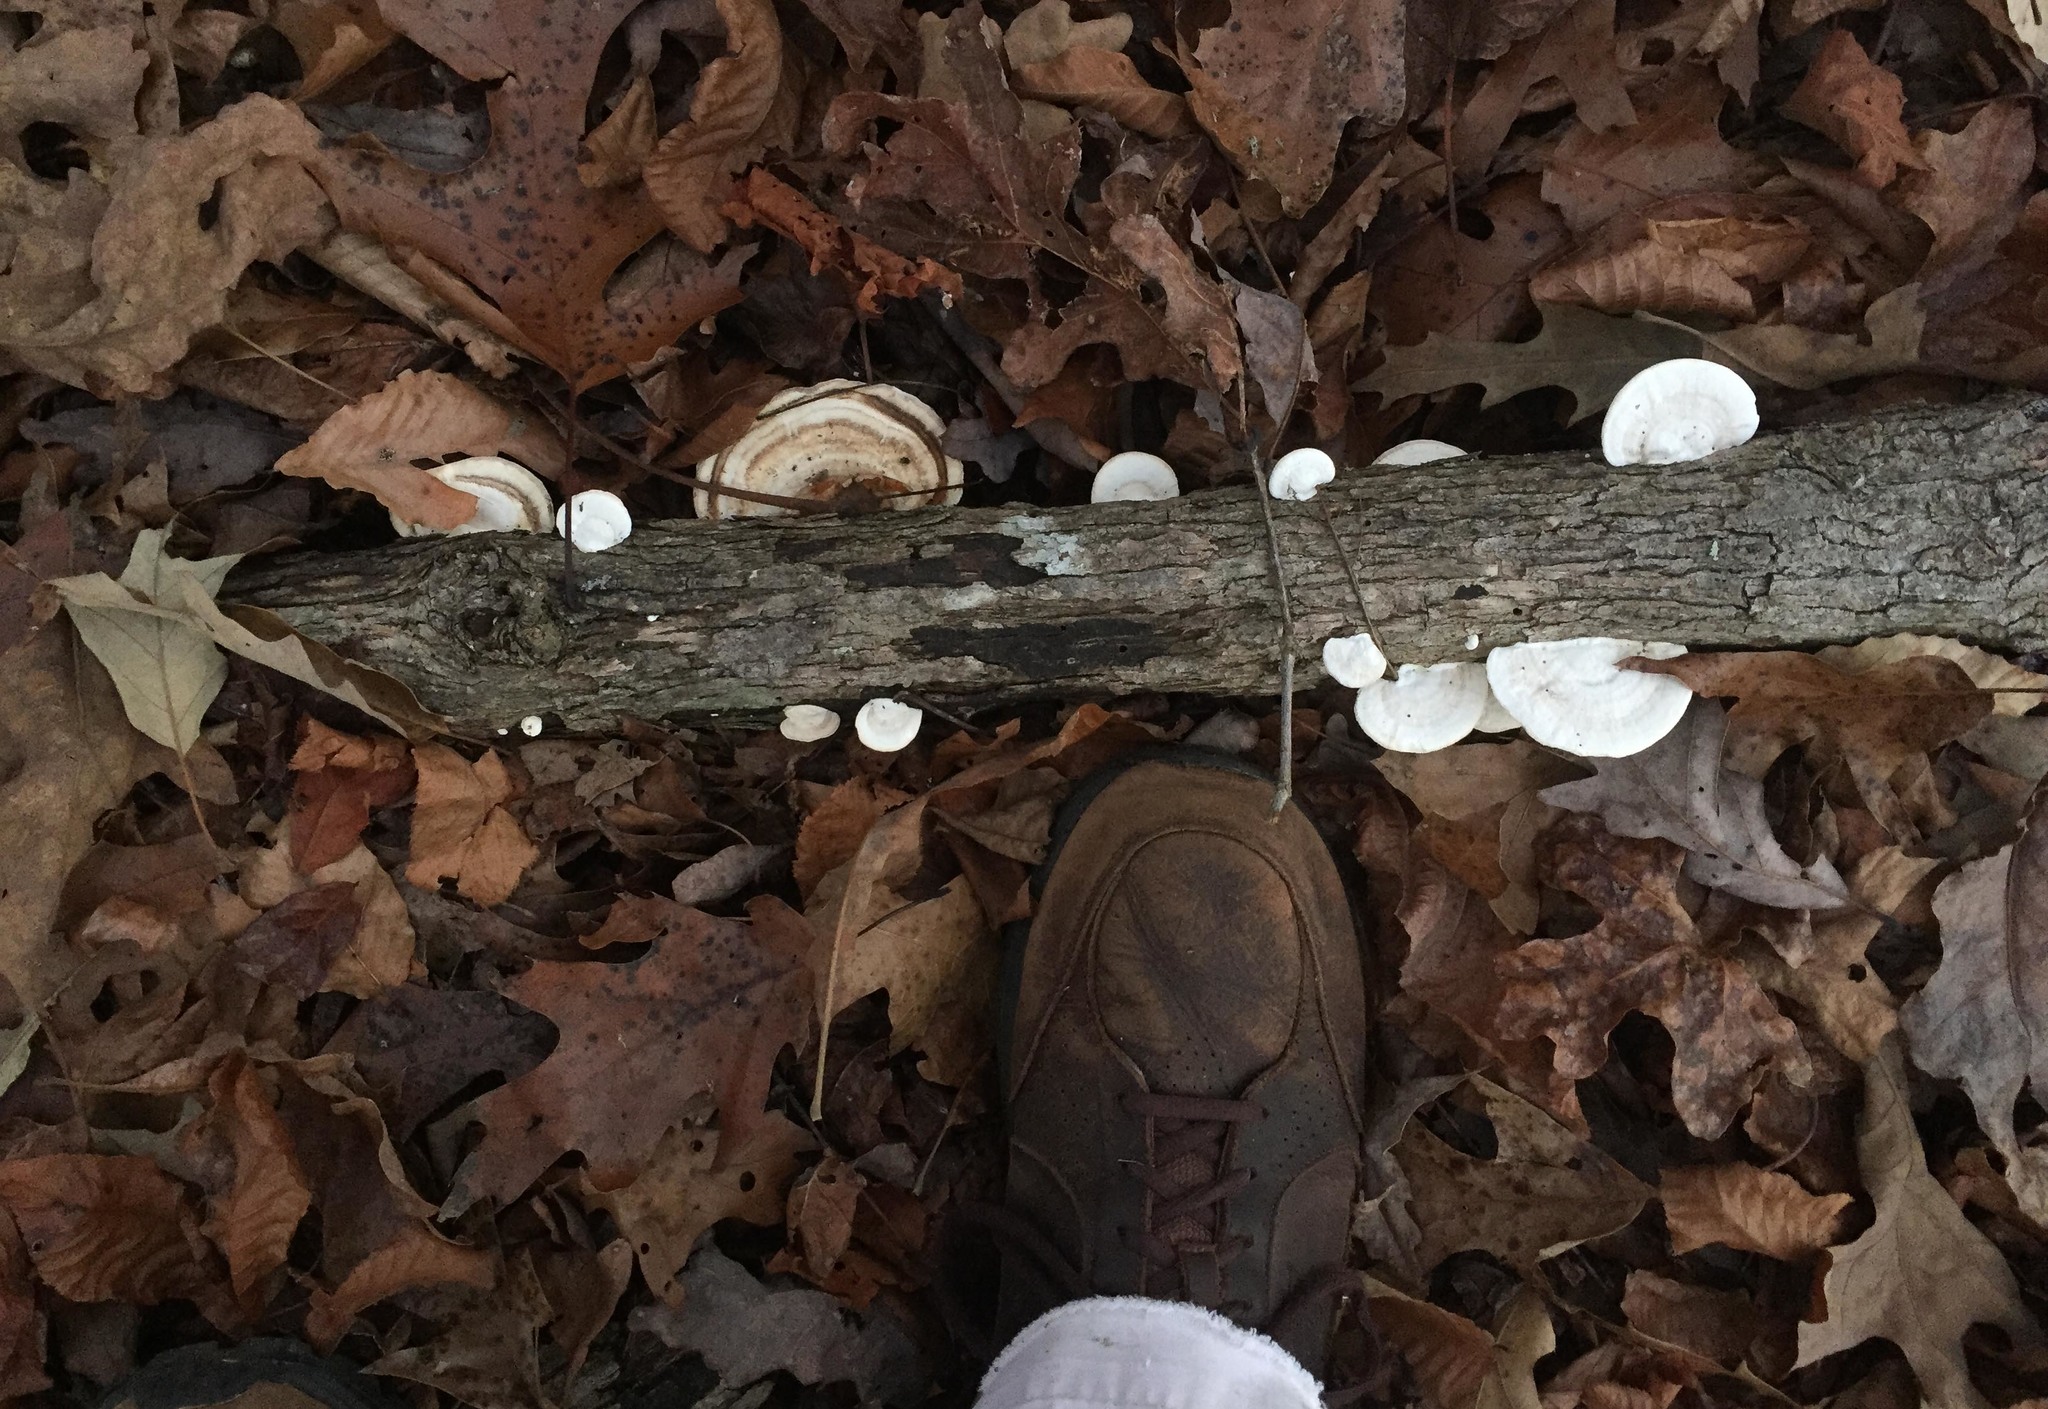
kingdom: Fungi
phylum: Basidiomycota
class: Agaricomycetes
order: Polyporales
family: Polyporaceae
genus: Trametes
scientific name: Trametes lactinea
